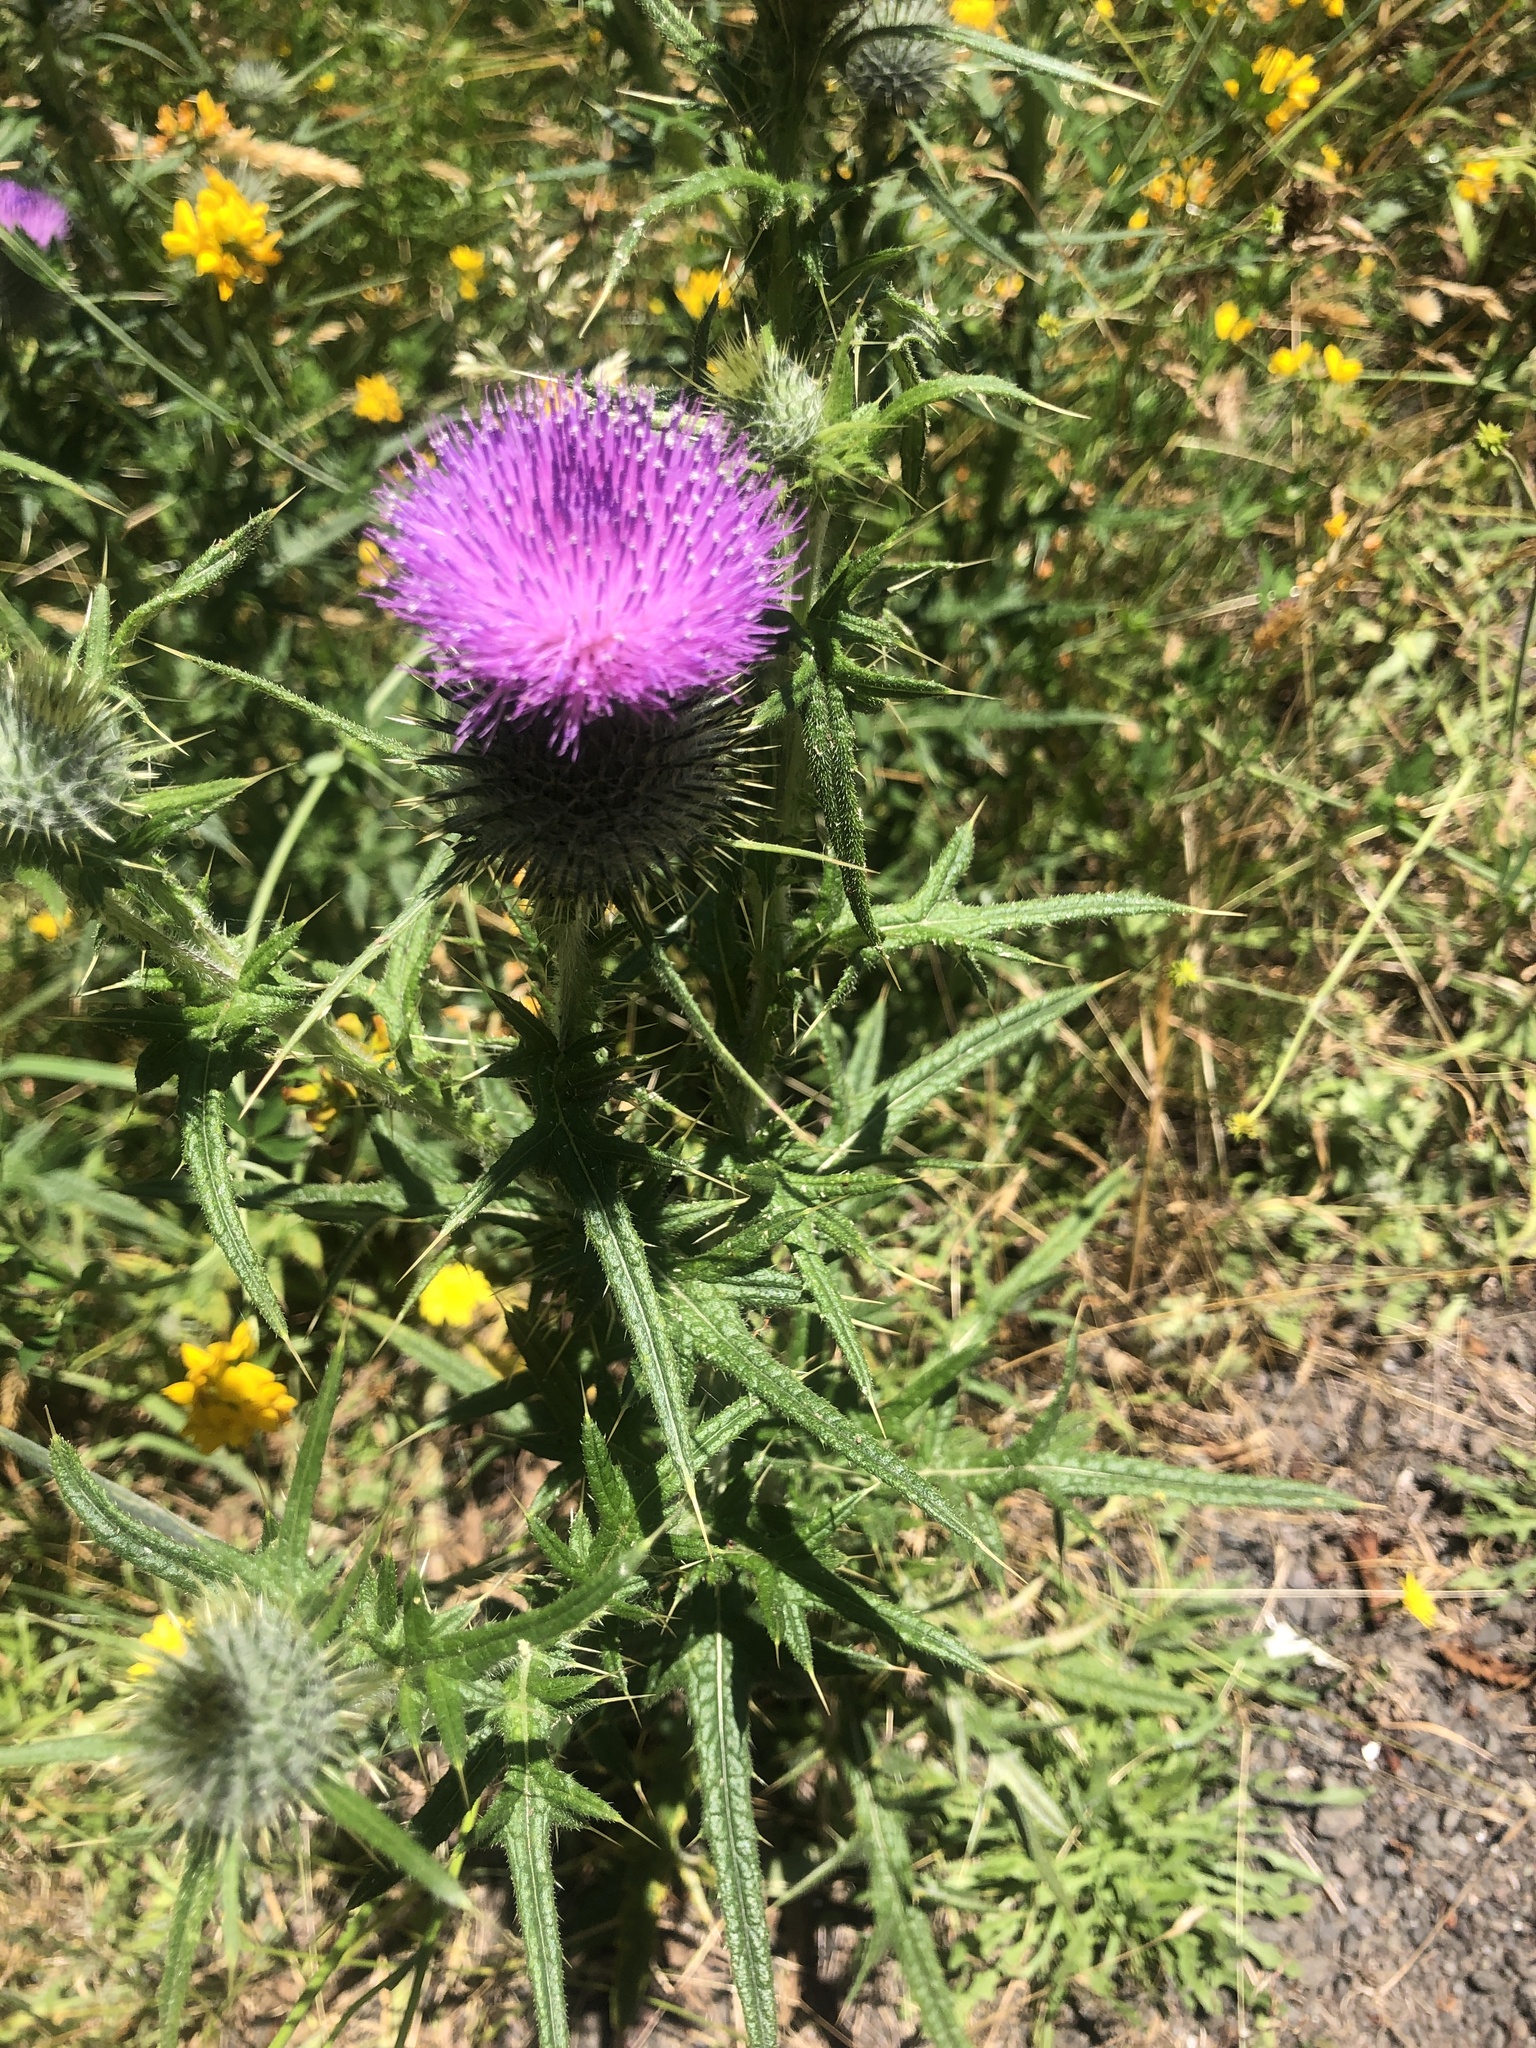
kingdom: Plantae
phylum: Tracheophyta
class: Magnoliopsida
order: Asterales
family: Asteraceae
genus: Cirsium
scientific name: Cirsium vulgare
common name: Bull thistle
